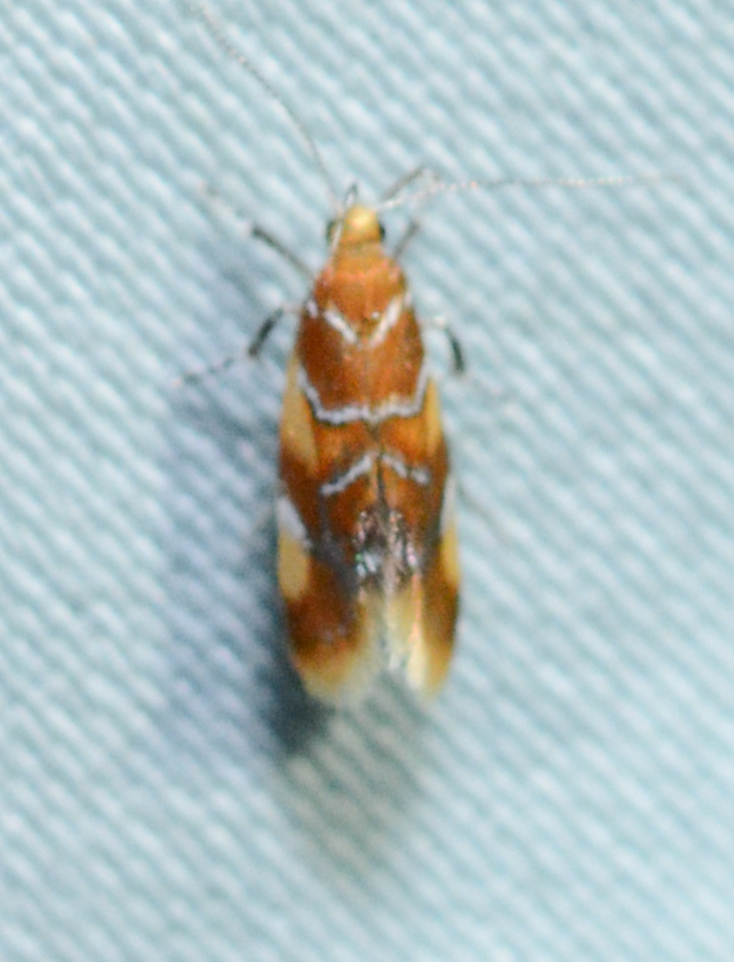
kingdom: Animalia
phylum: Arthropoda
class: Insecta
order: Lepidoptera
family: Oecophoridae
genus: Callima
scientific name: Callima argenticinctella
